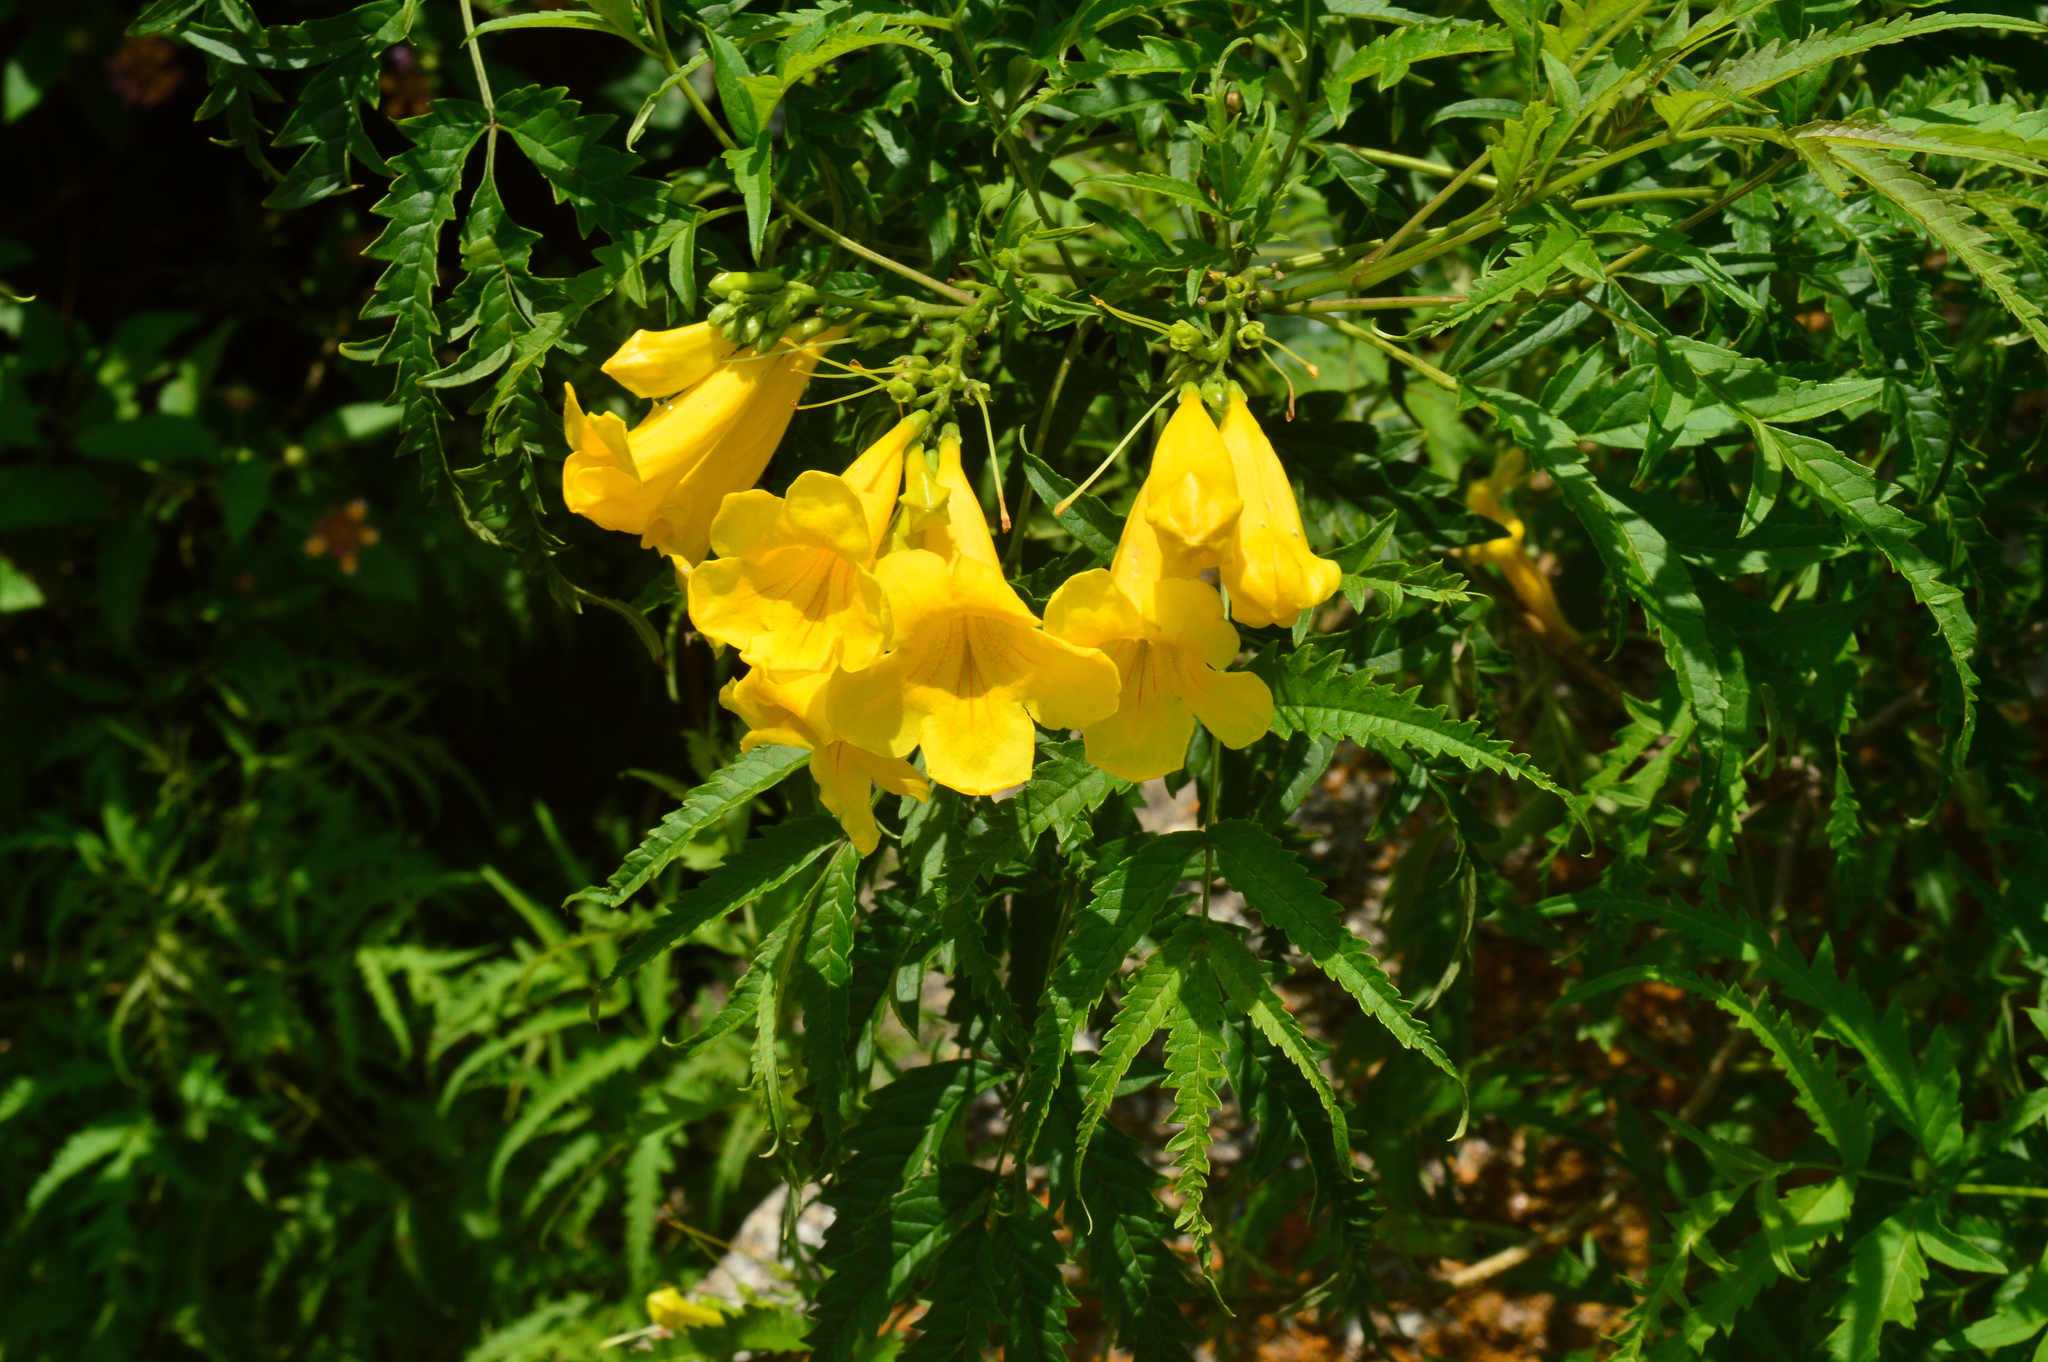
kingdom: Plantae
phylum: Tracheophyta
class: Magnoliopsida
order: Lamiales
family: Bignoniaceae
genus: Tecoma
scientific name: Tecoma stans
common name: Yellow trumpetbush
